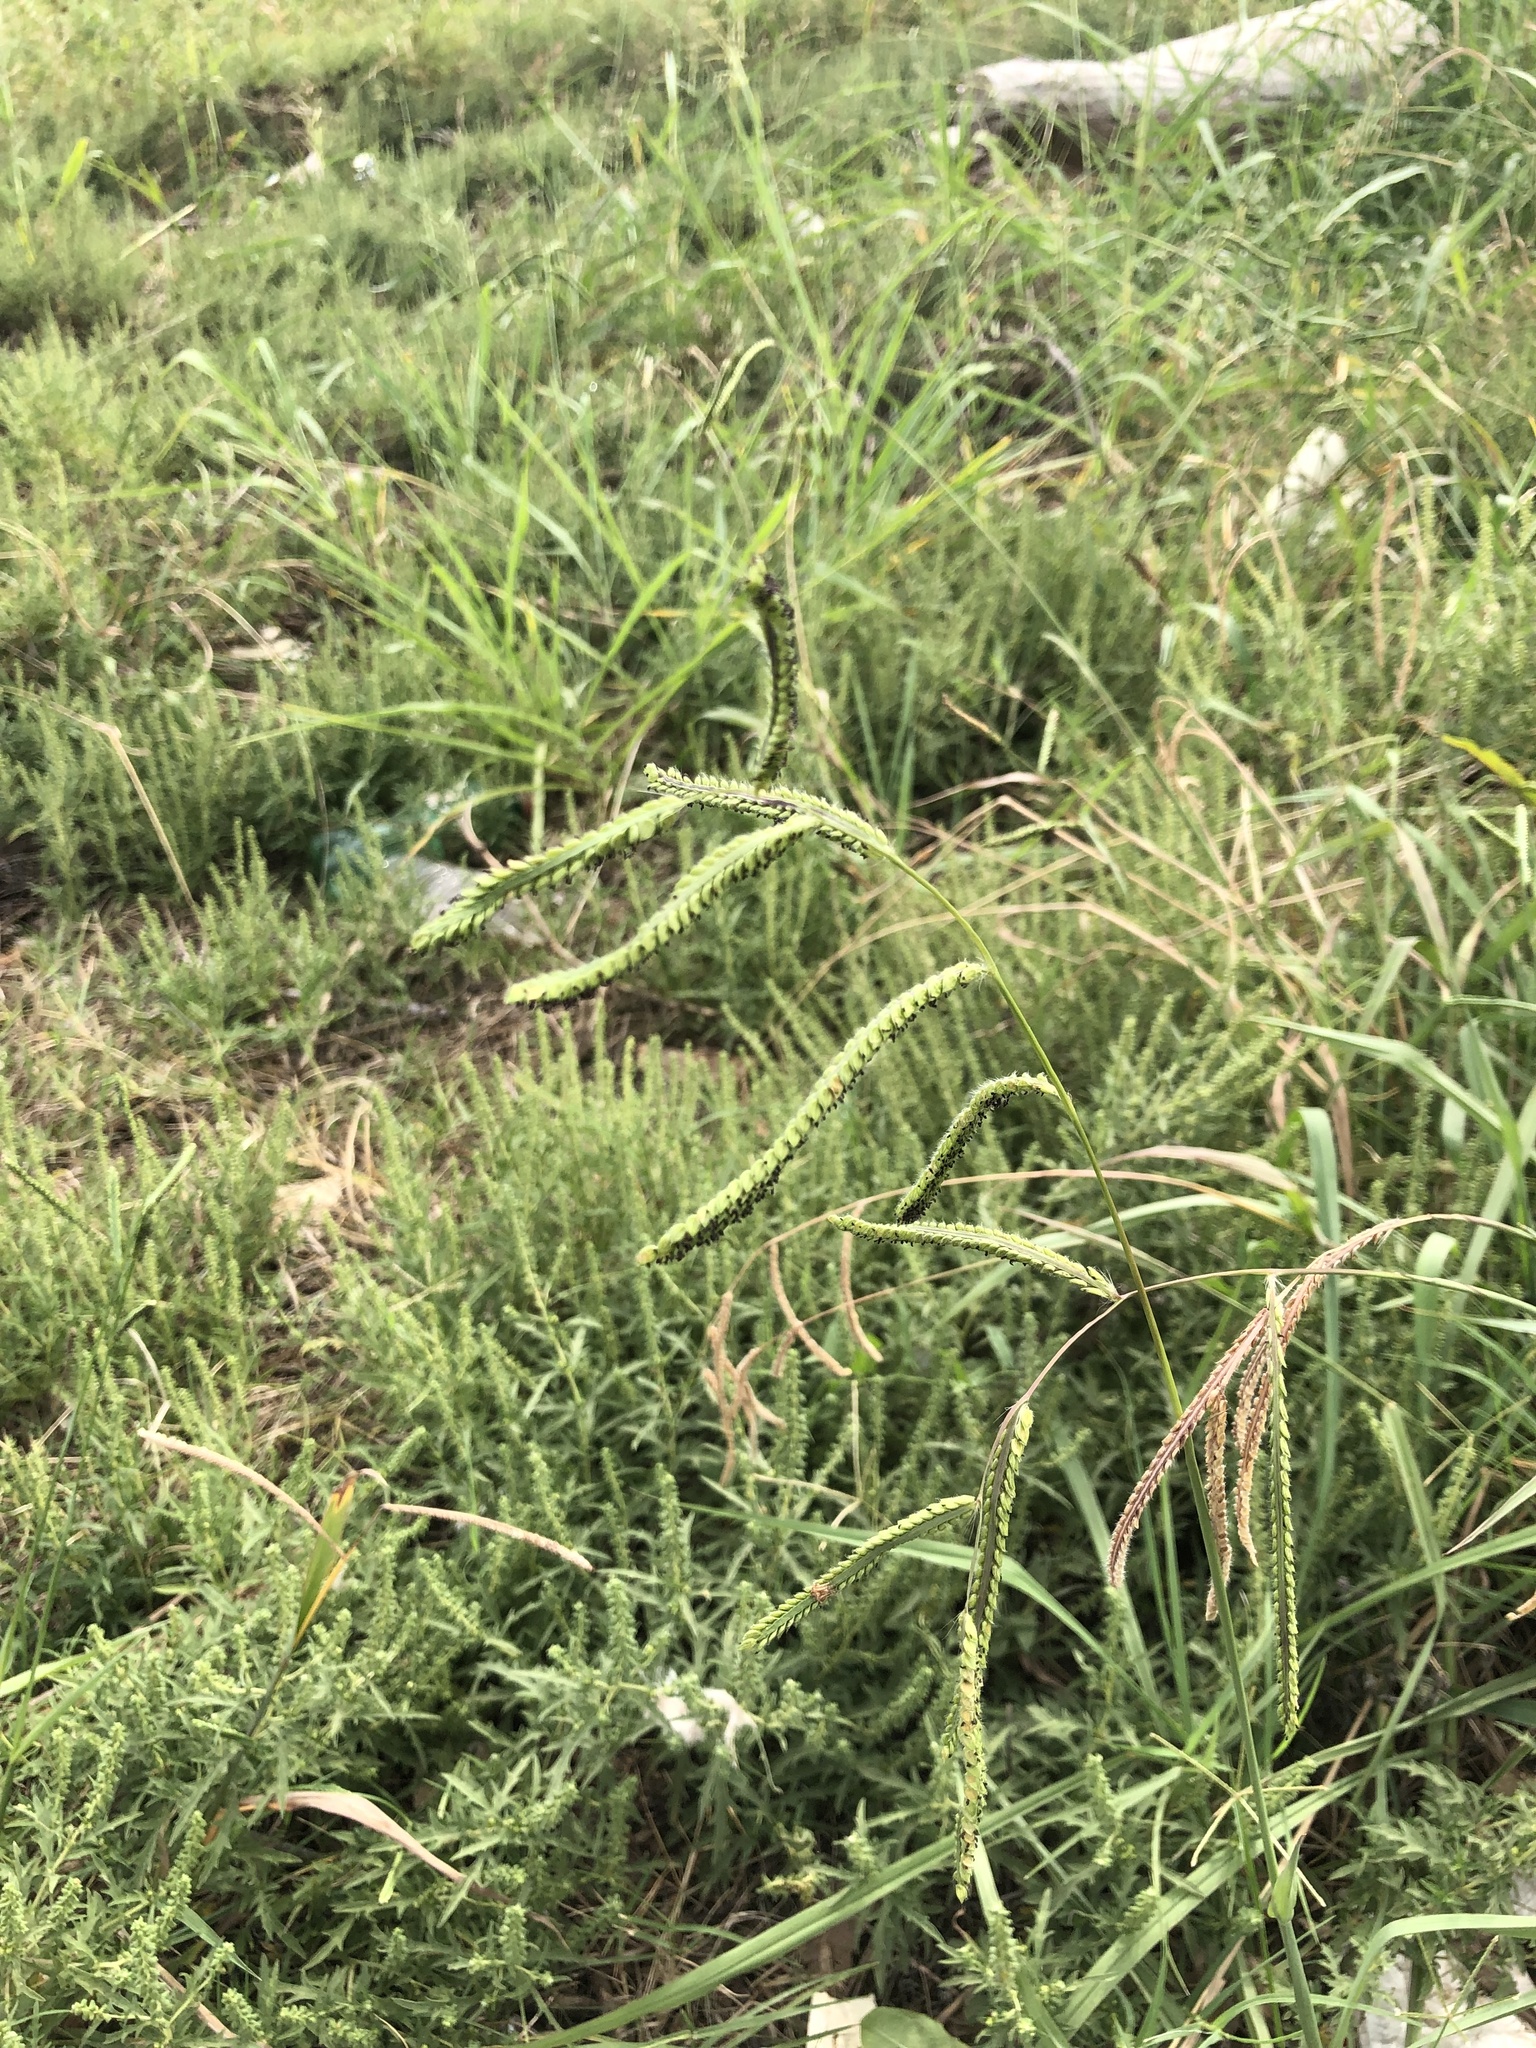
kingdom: Plantae
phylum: Tracheophyta
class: Liliopsida
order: Poales
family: Poaceae
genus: Paspalum
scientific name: Paspalum dilatatum
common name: Dallisgrass
